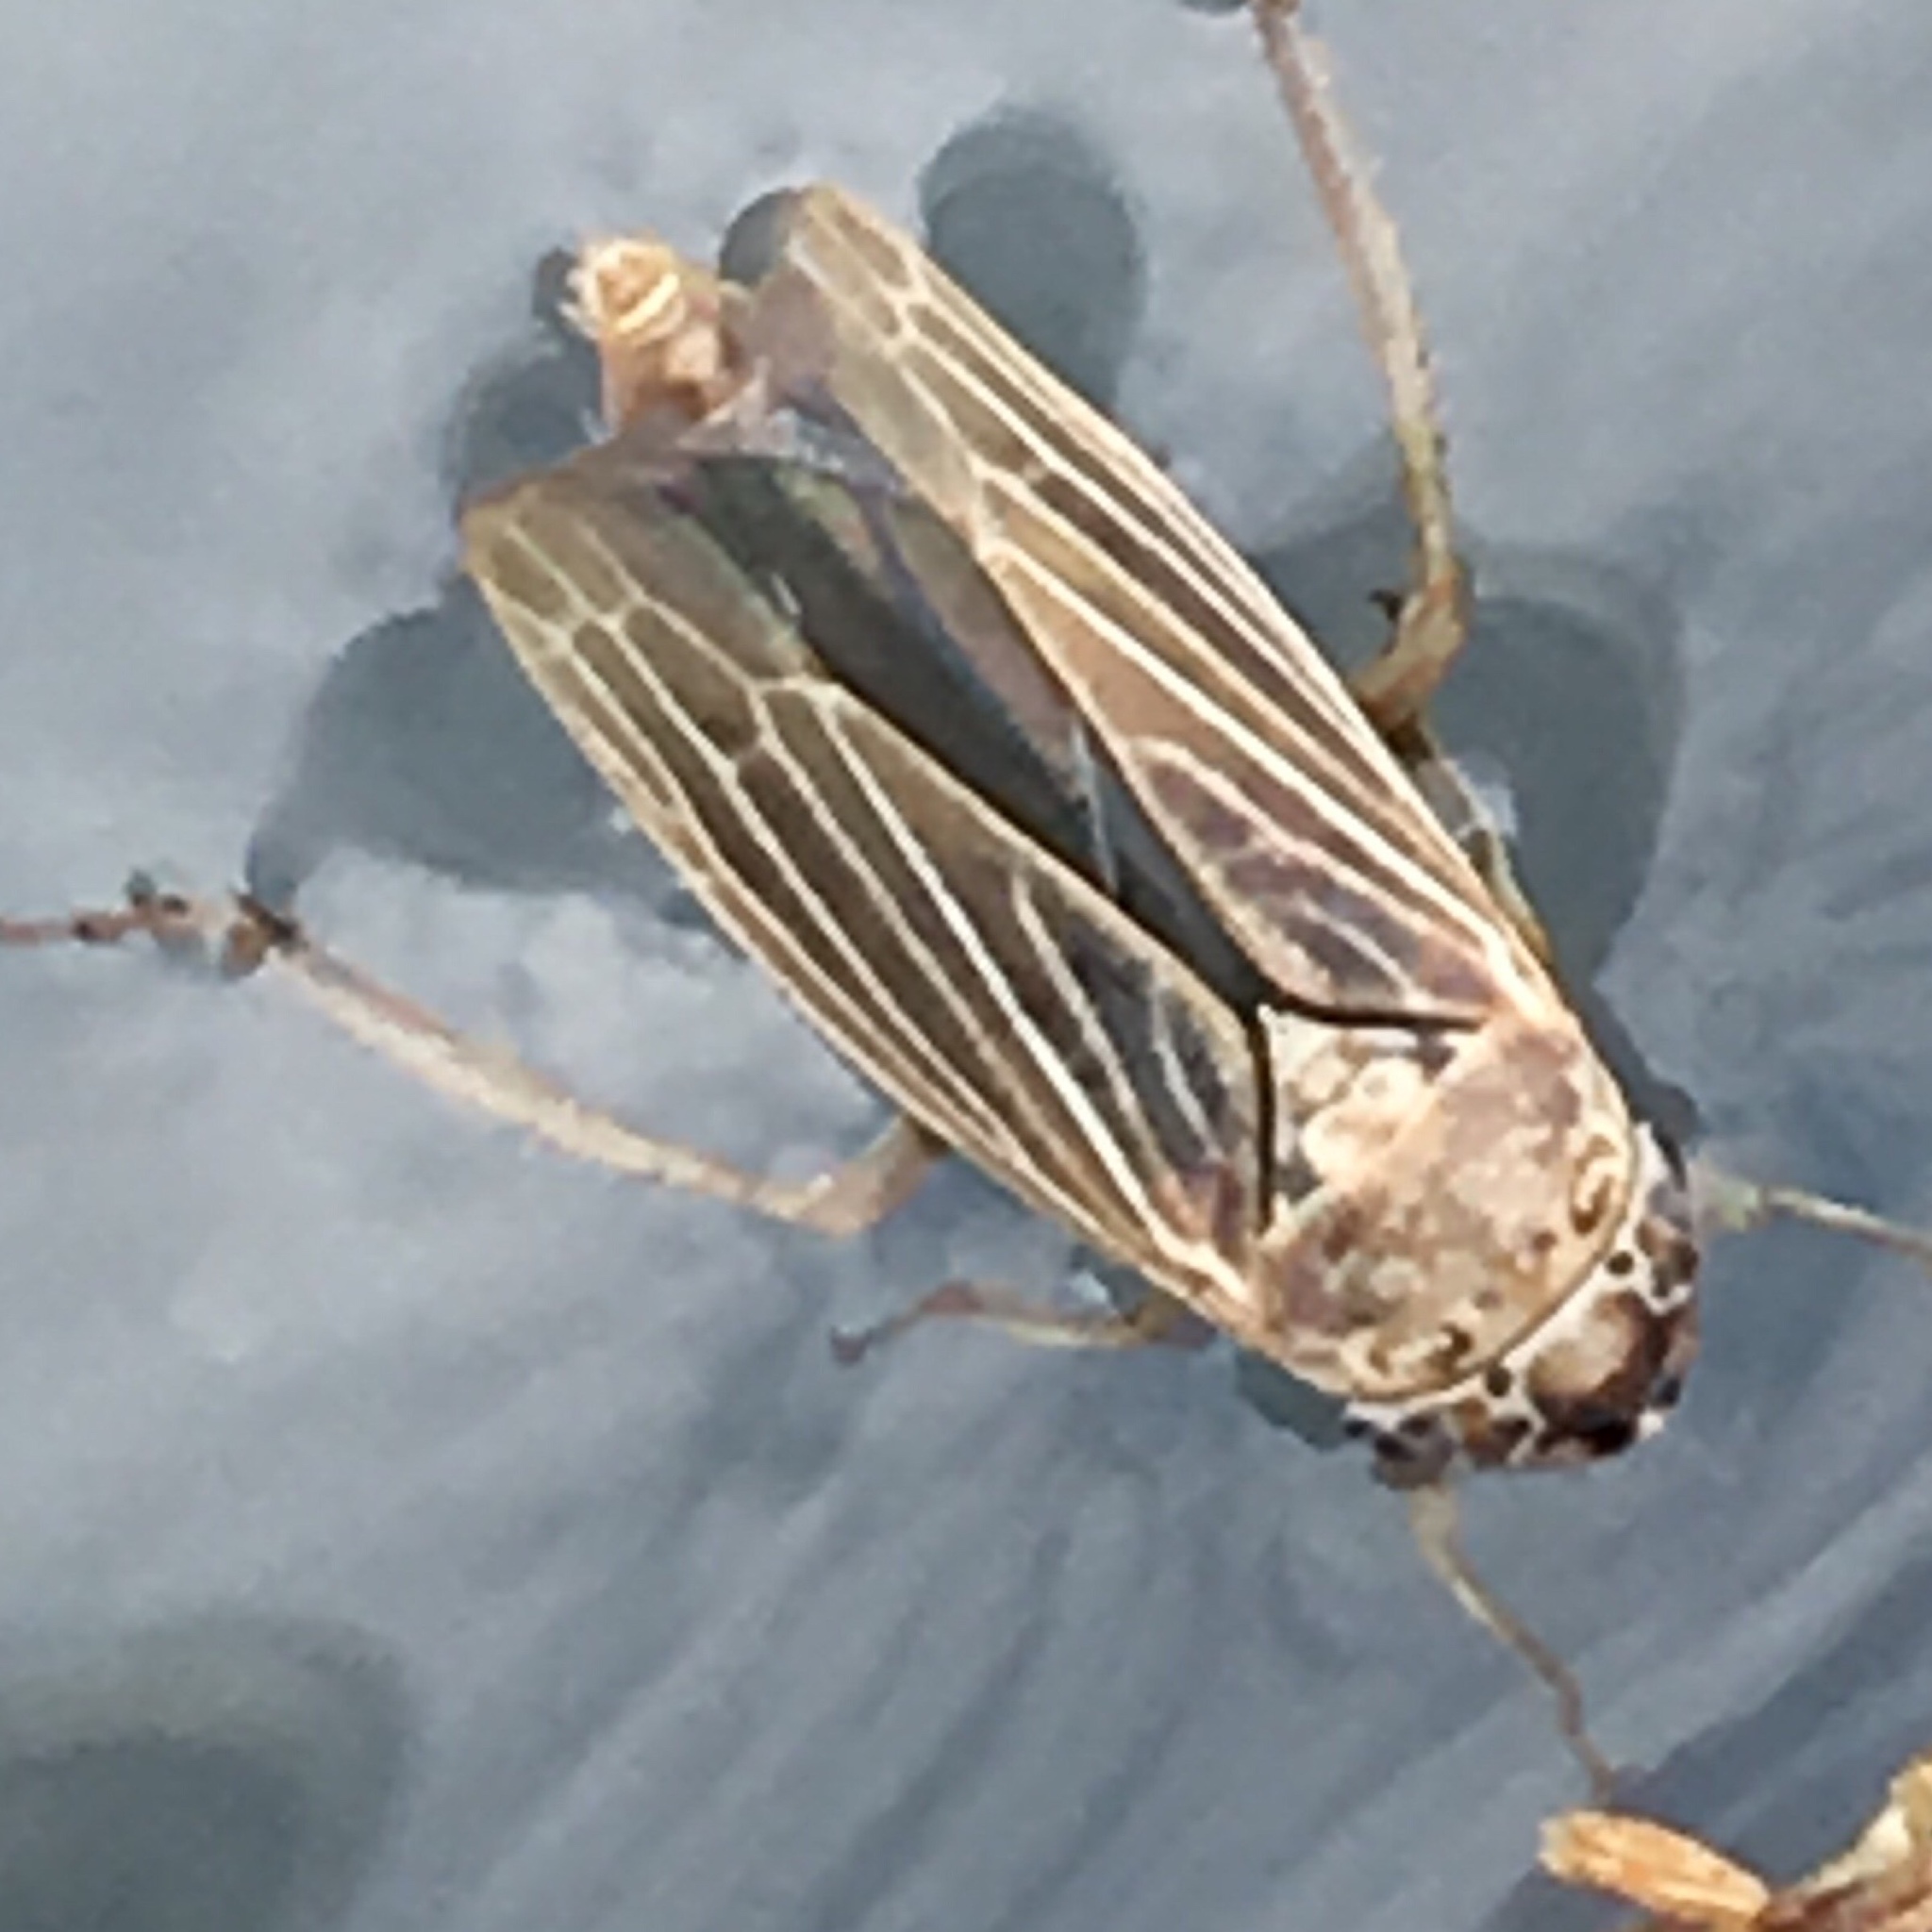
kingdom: Animalia
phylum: Arthropoda
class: Insecta
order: Hemiptera
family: Cicadellidae
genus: Ciminius
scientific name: Ciminius hartii
